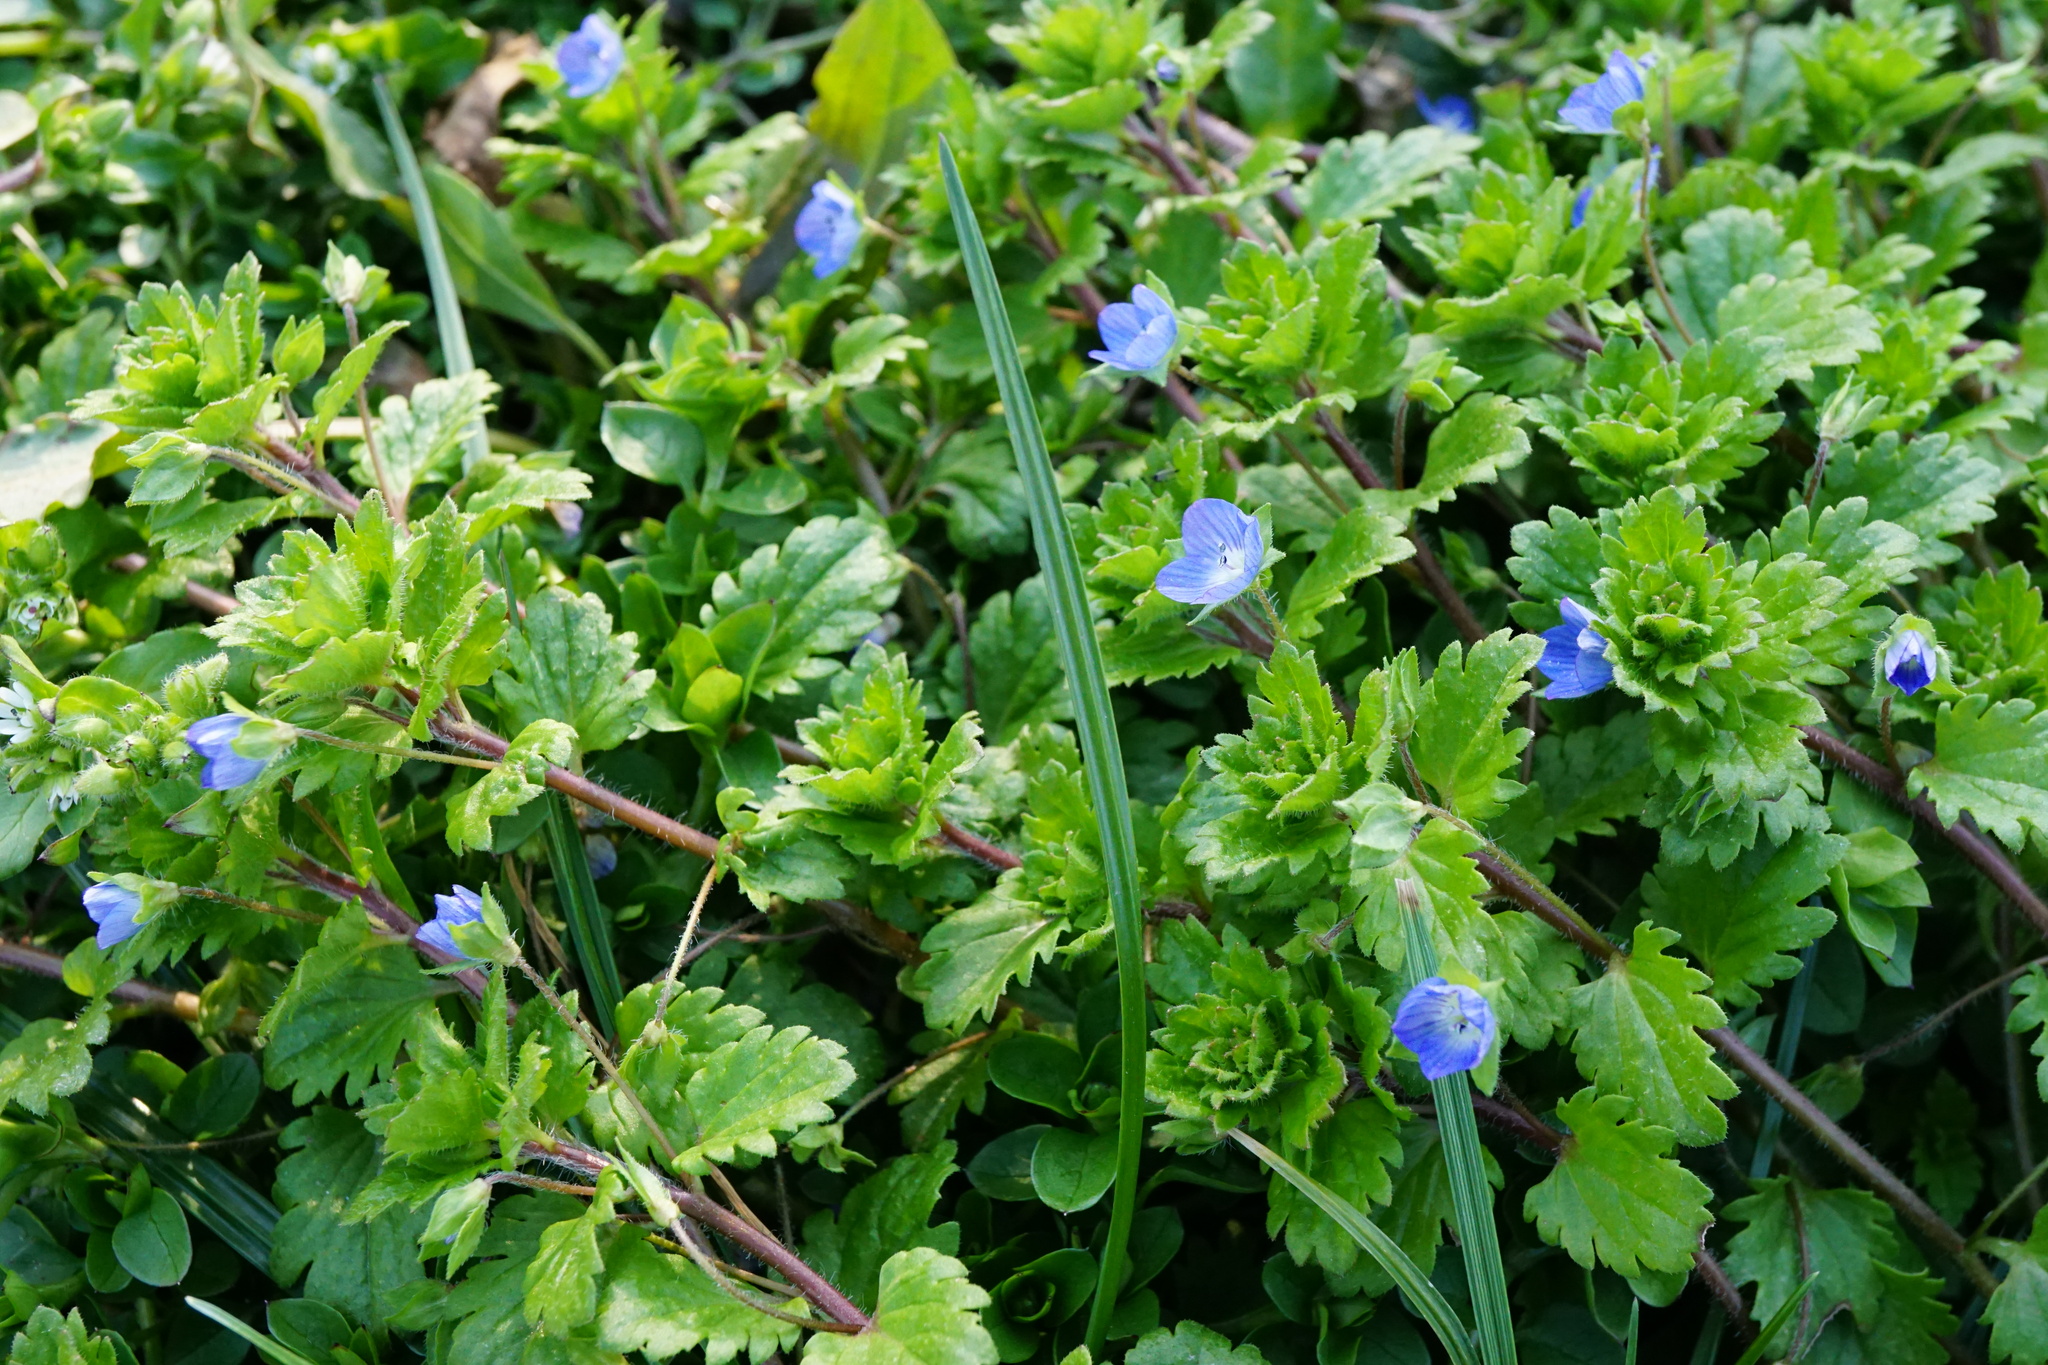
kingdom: Plantae
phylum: Tracheophyta
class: Magnoliopsida
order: Lamiales
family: Plantaginaceae
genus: Veronica
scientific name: Veronica persica
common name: Common field-speedwell
